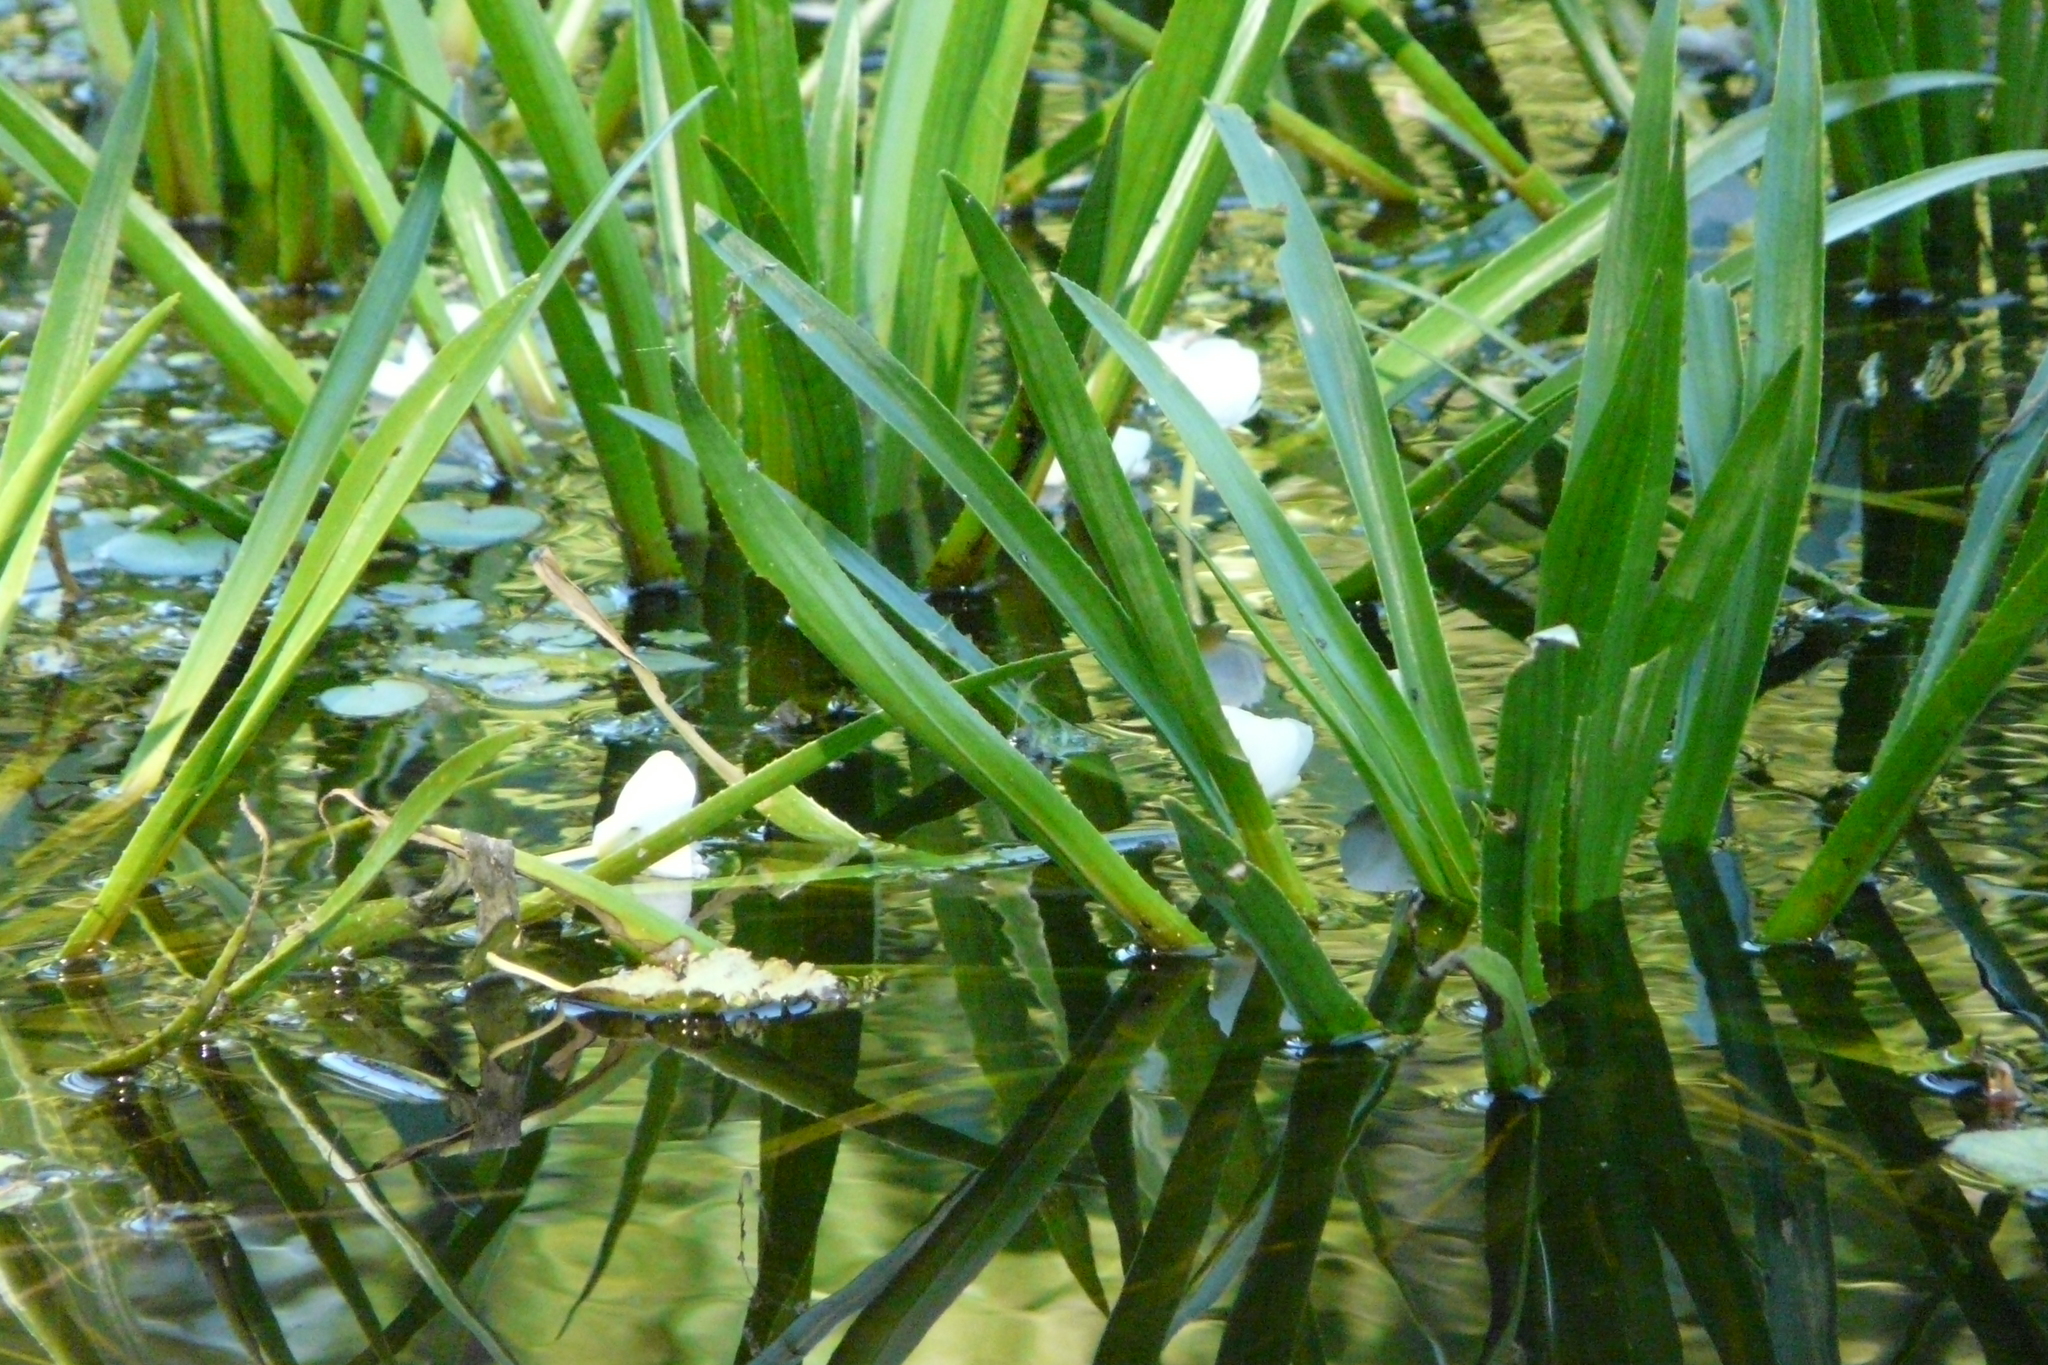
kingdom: Plantae
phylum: Tracheophyta
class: Liliopsida
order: Alismatales
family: Hydrocharitaceae
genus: Stratiotes
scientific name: Stratiotes aloides
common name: Water-soldier
